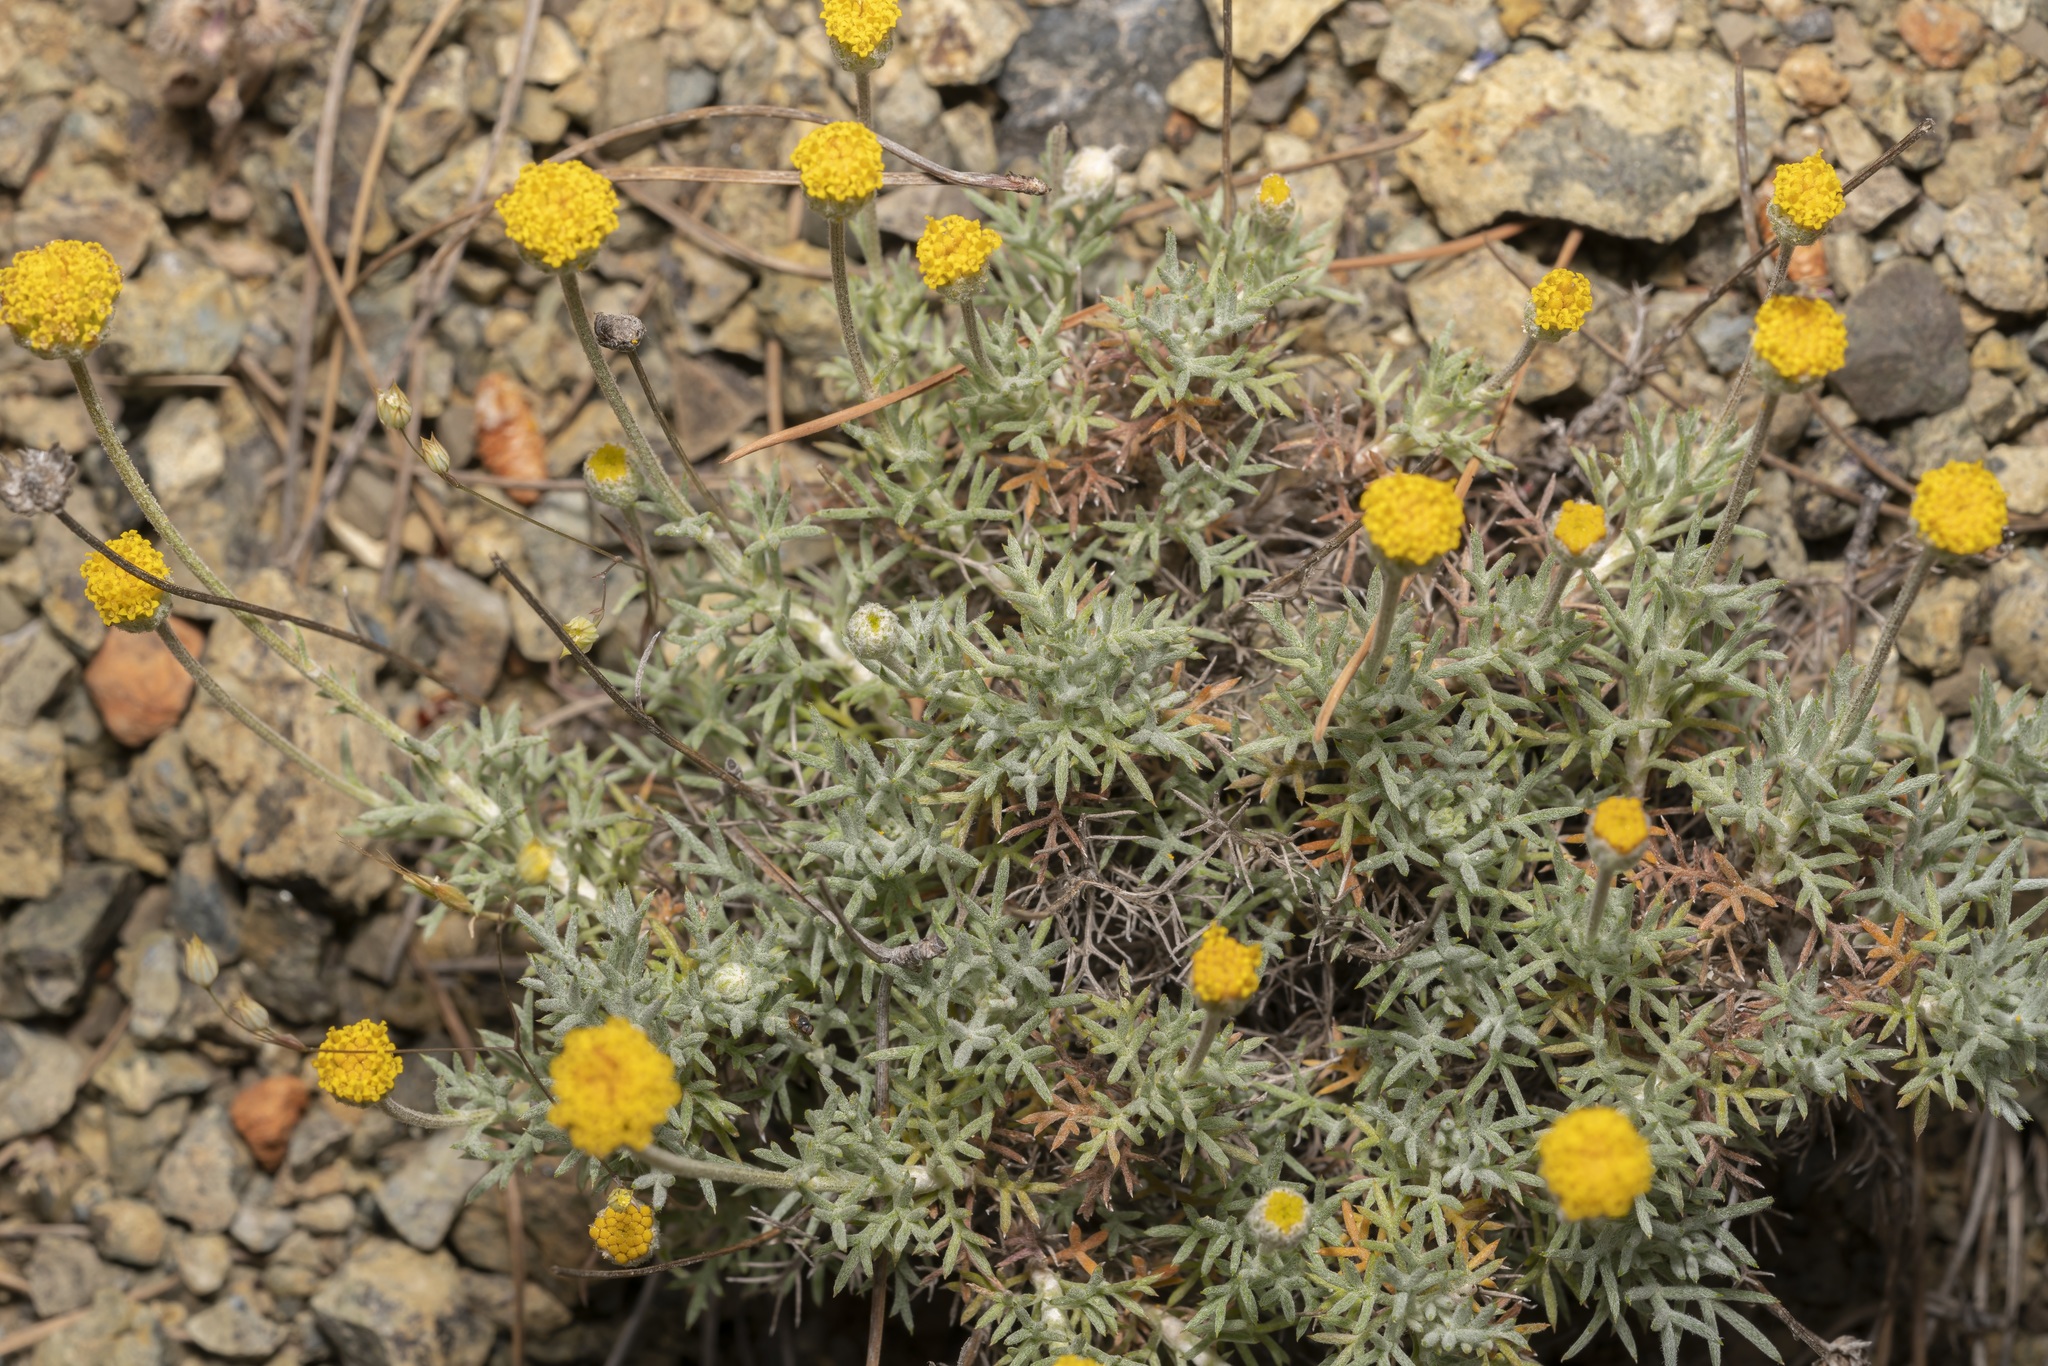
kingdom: Plantae
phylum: Tracheophyta
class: Magnoliopsida
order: Asterales
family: Asteraceae
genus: Anthemis
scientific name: Anthemis rhodensis
